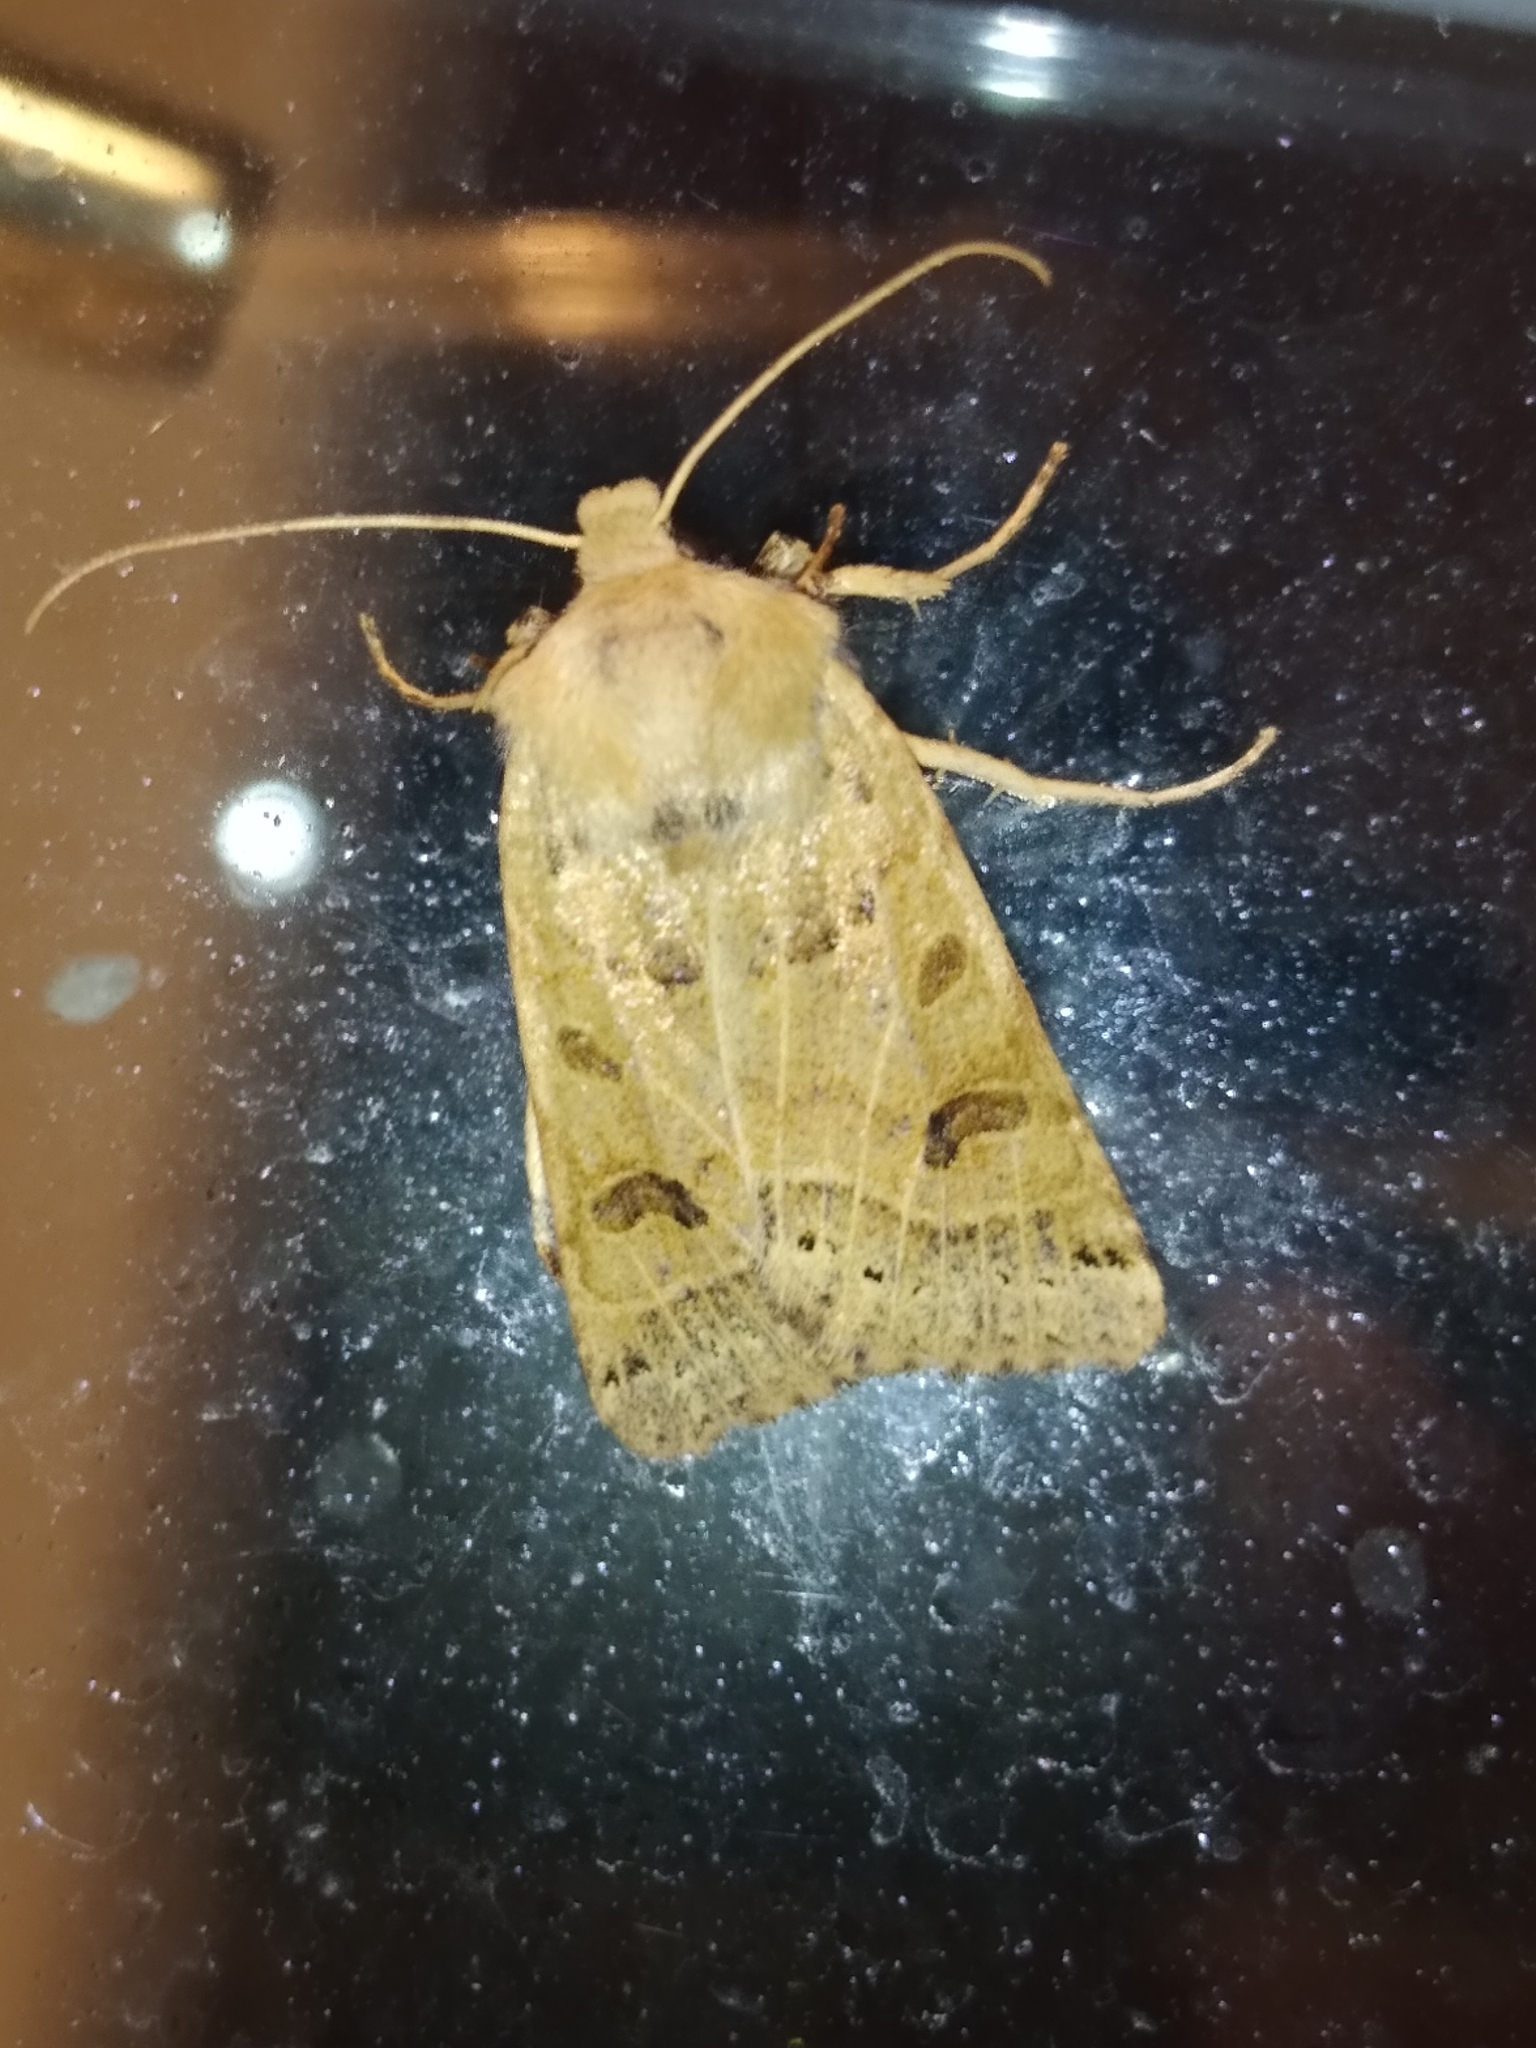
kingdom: Animalia
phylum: Arthropoda
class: Insecta
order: Lepidoptera
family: Noctuidae
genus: Agrochola
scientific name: Agrochola lunosa
